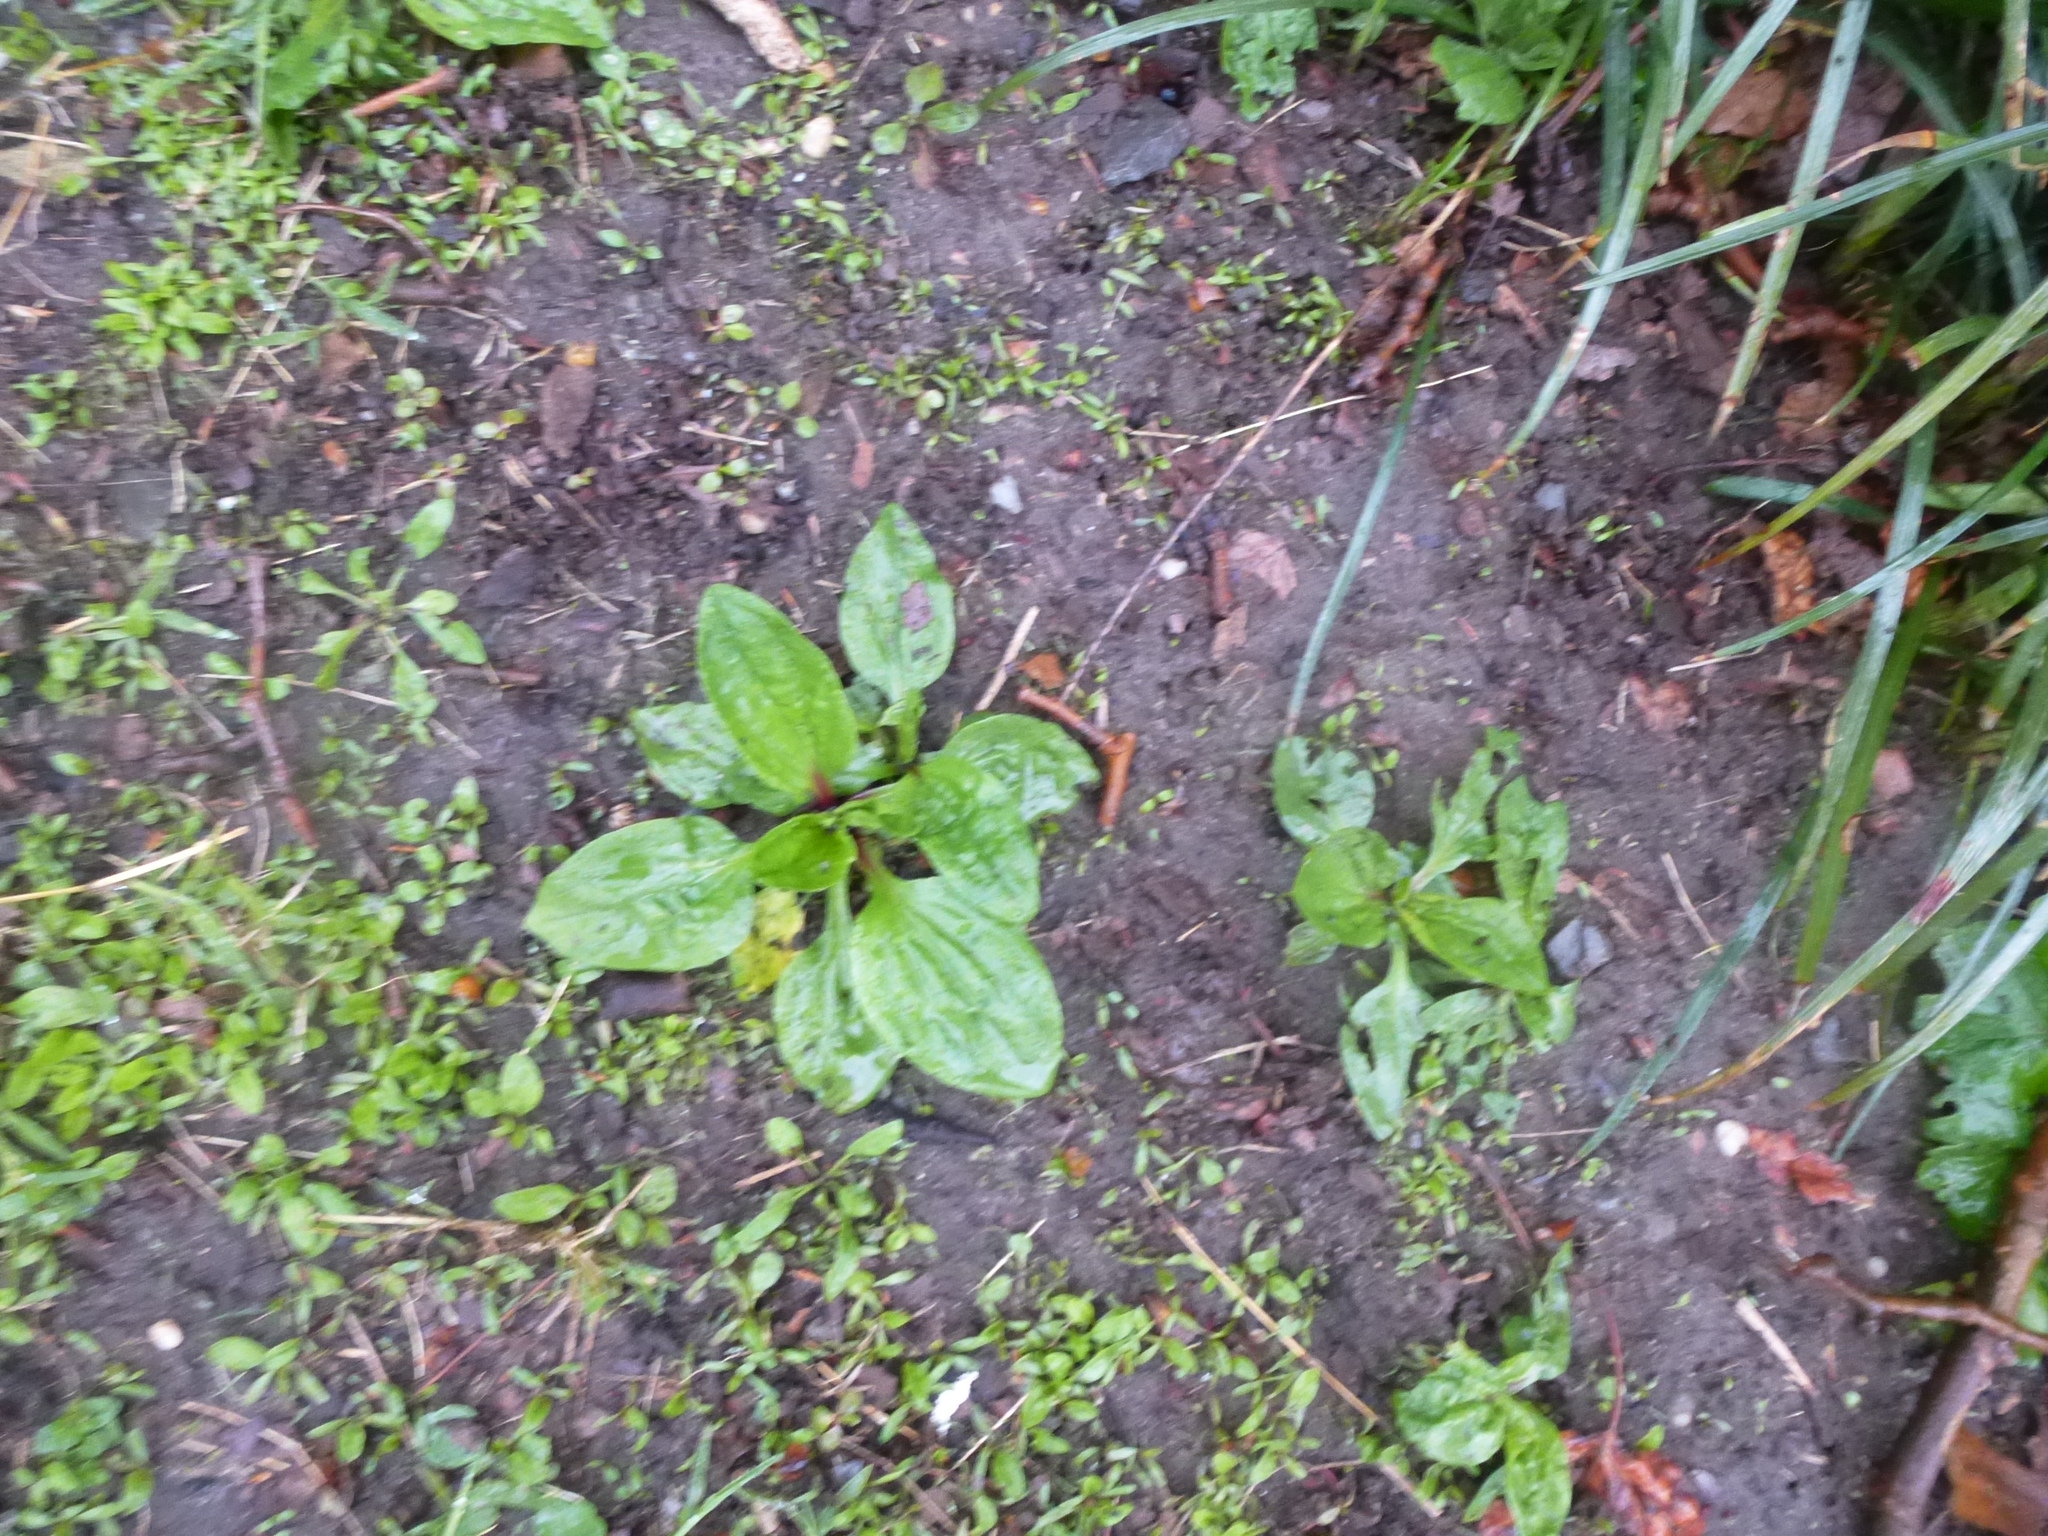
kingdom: Plantae
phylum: Tracheophyta
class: Magnoliopsida
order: Lamiales
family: Plantaginaceae
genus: Plantago
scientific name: Plantago rugelii
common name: American plantain
